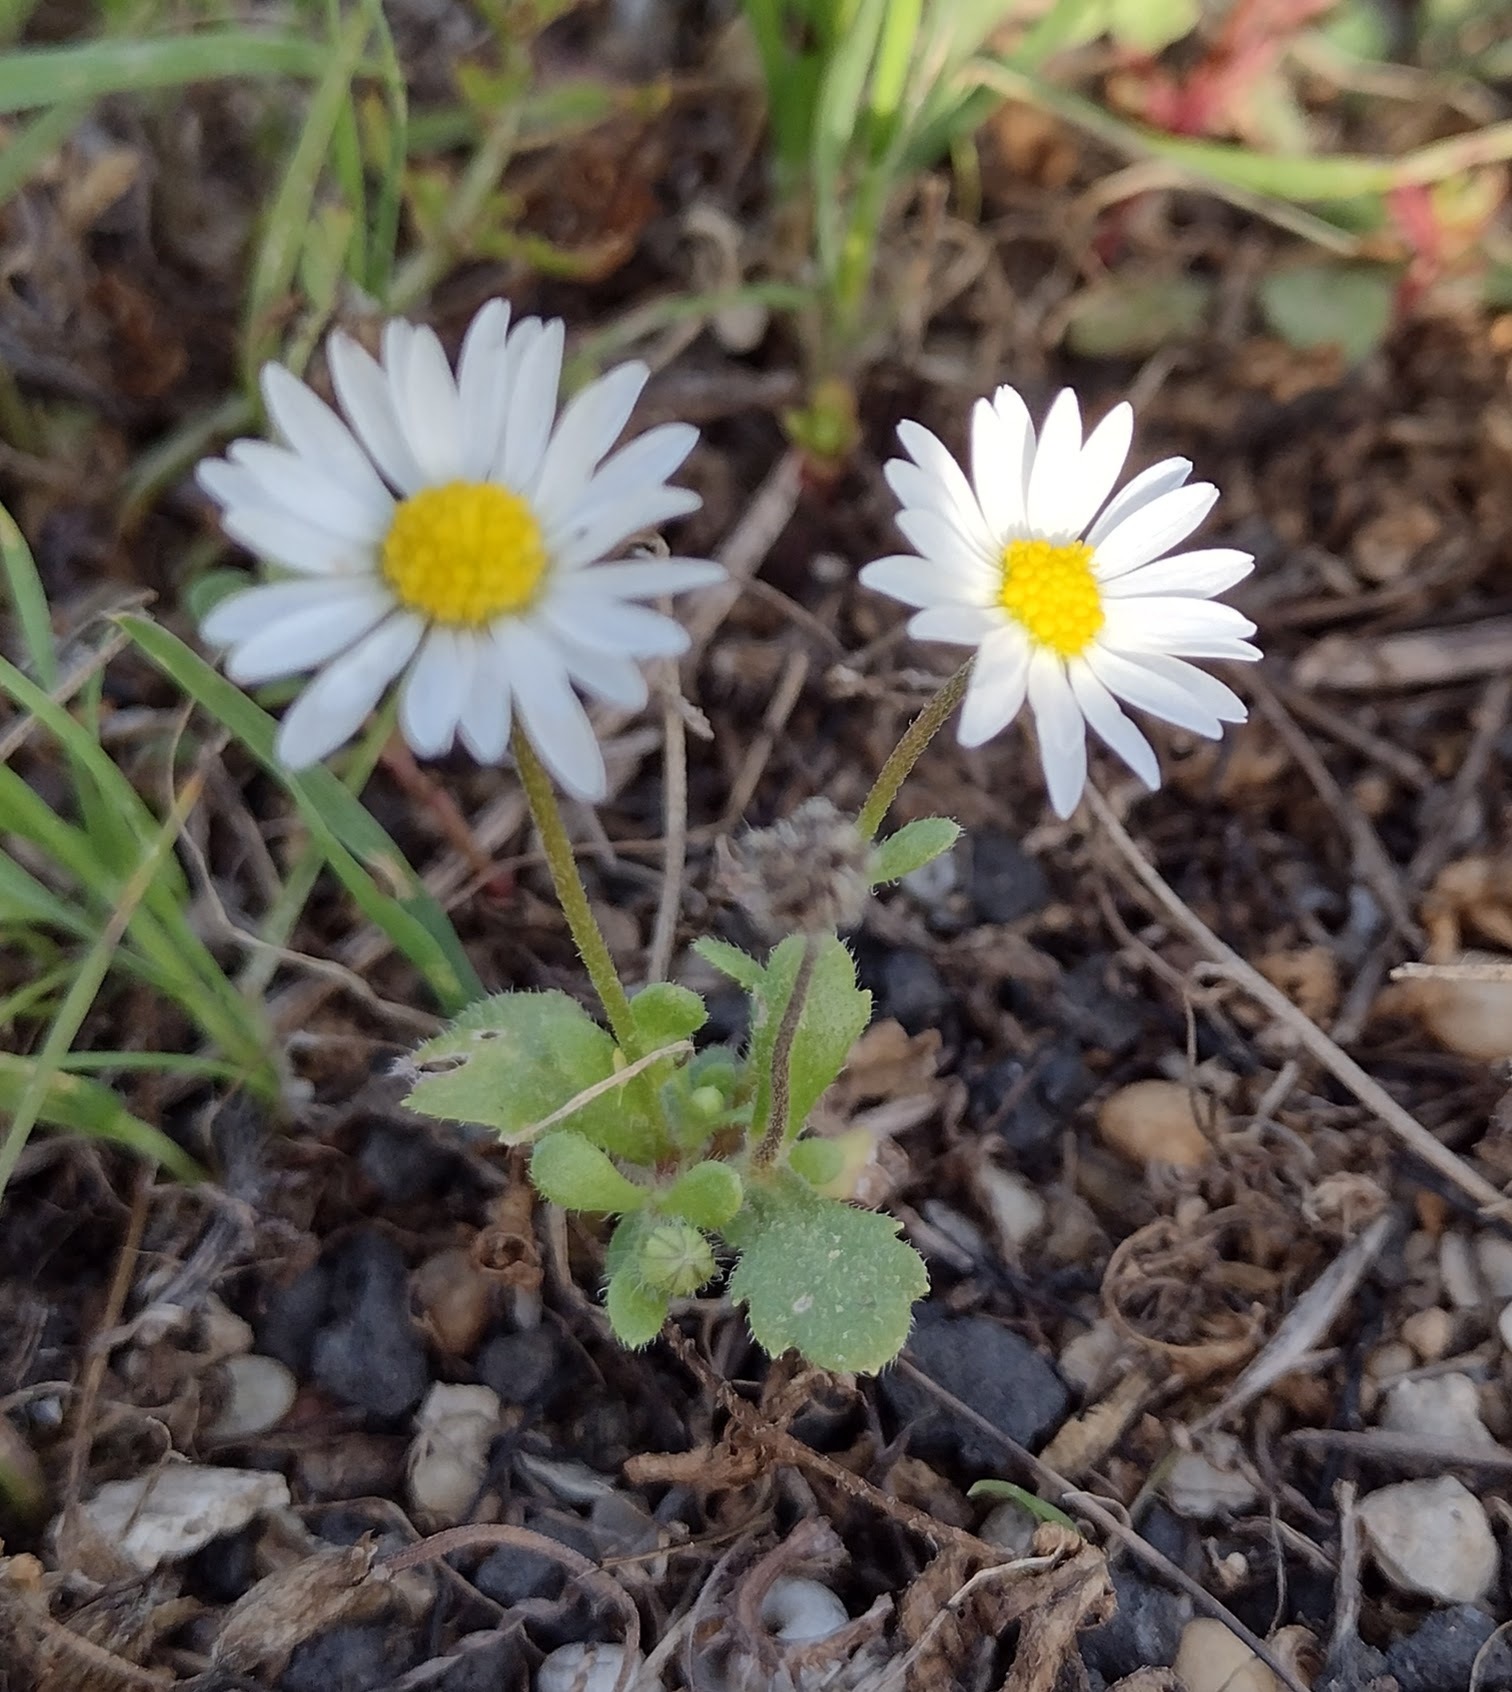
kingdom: Plantae
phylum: Tracheophyta
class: Magnoliopsida
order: Asterales
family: Asteraceae
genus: Bellis
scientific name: Bellis annua
